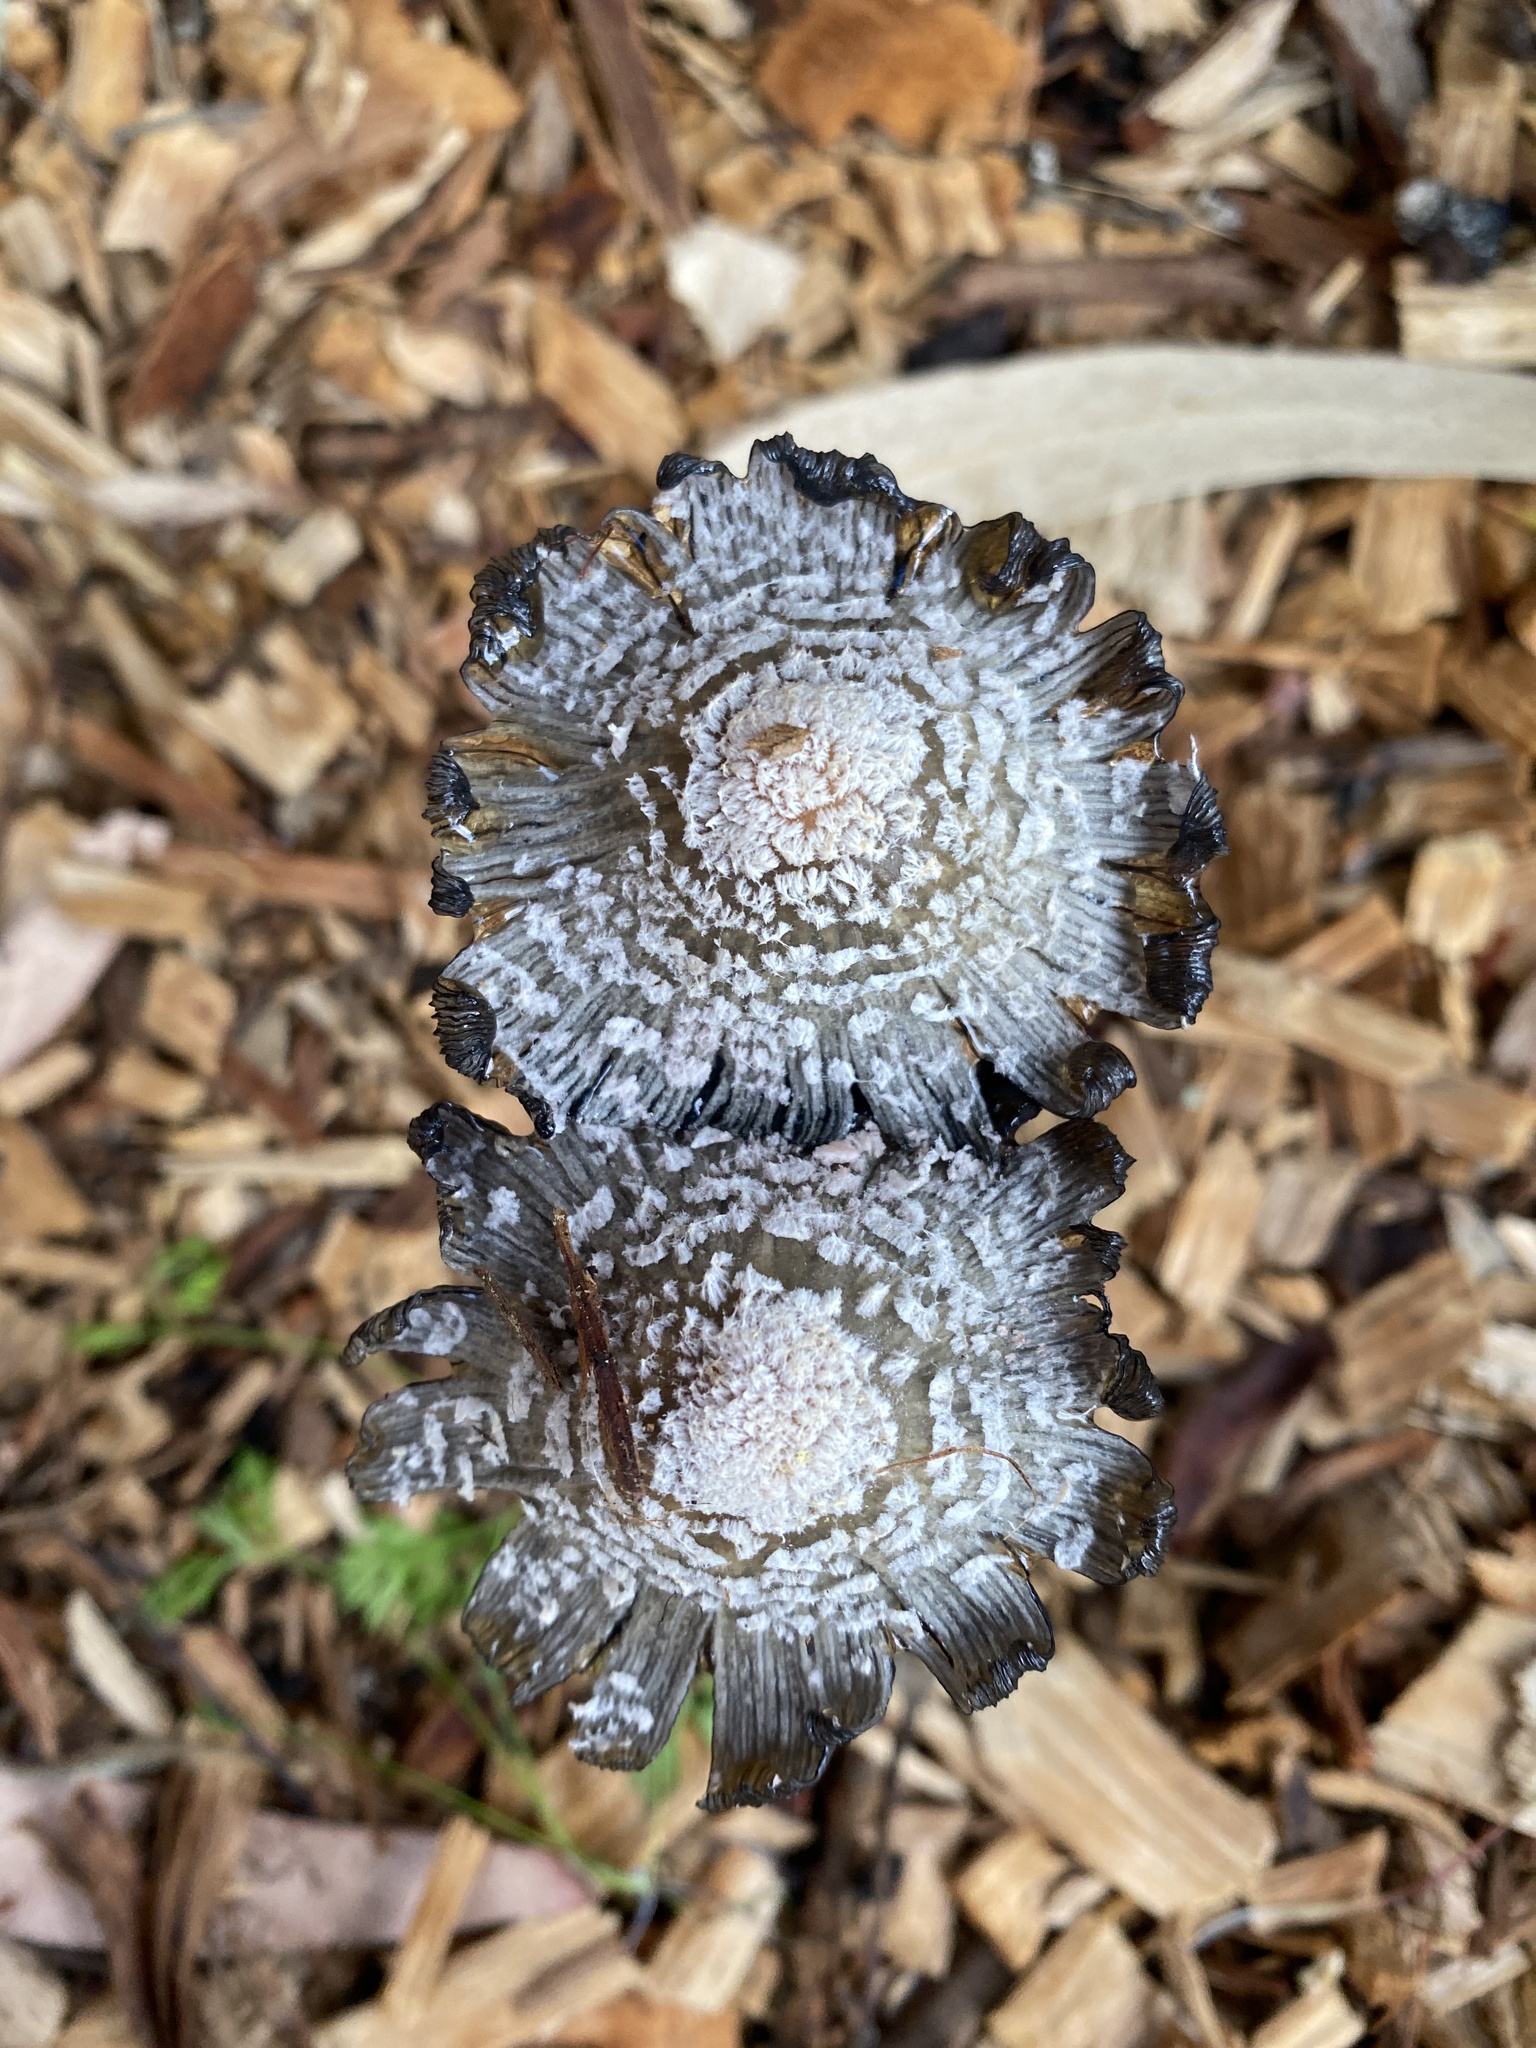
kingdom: Fungi
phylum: Basidiomycota
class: Agaricomycetes
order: Agaricales
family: Psathyrellaceae
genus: Coprinellus
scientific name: Coprinellus flocculosus
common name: Flocculose inkcap
